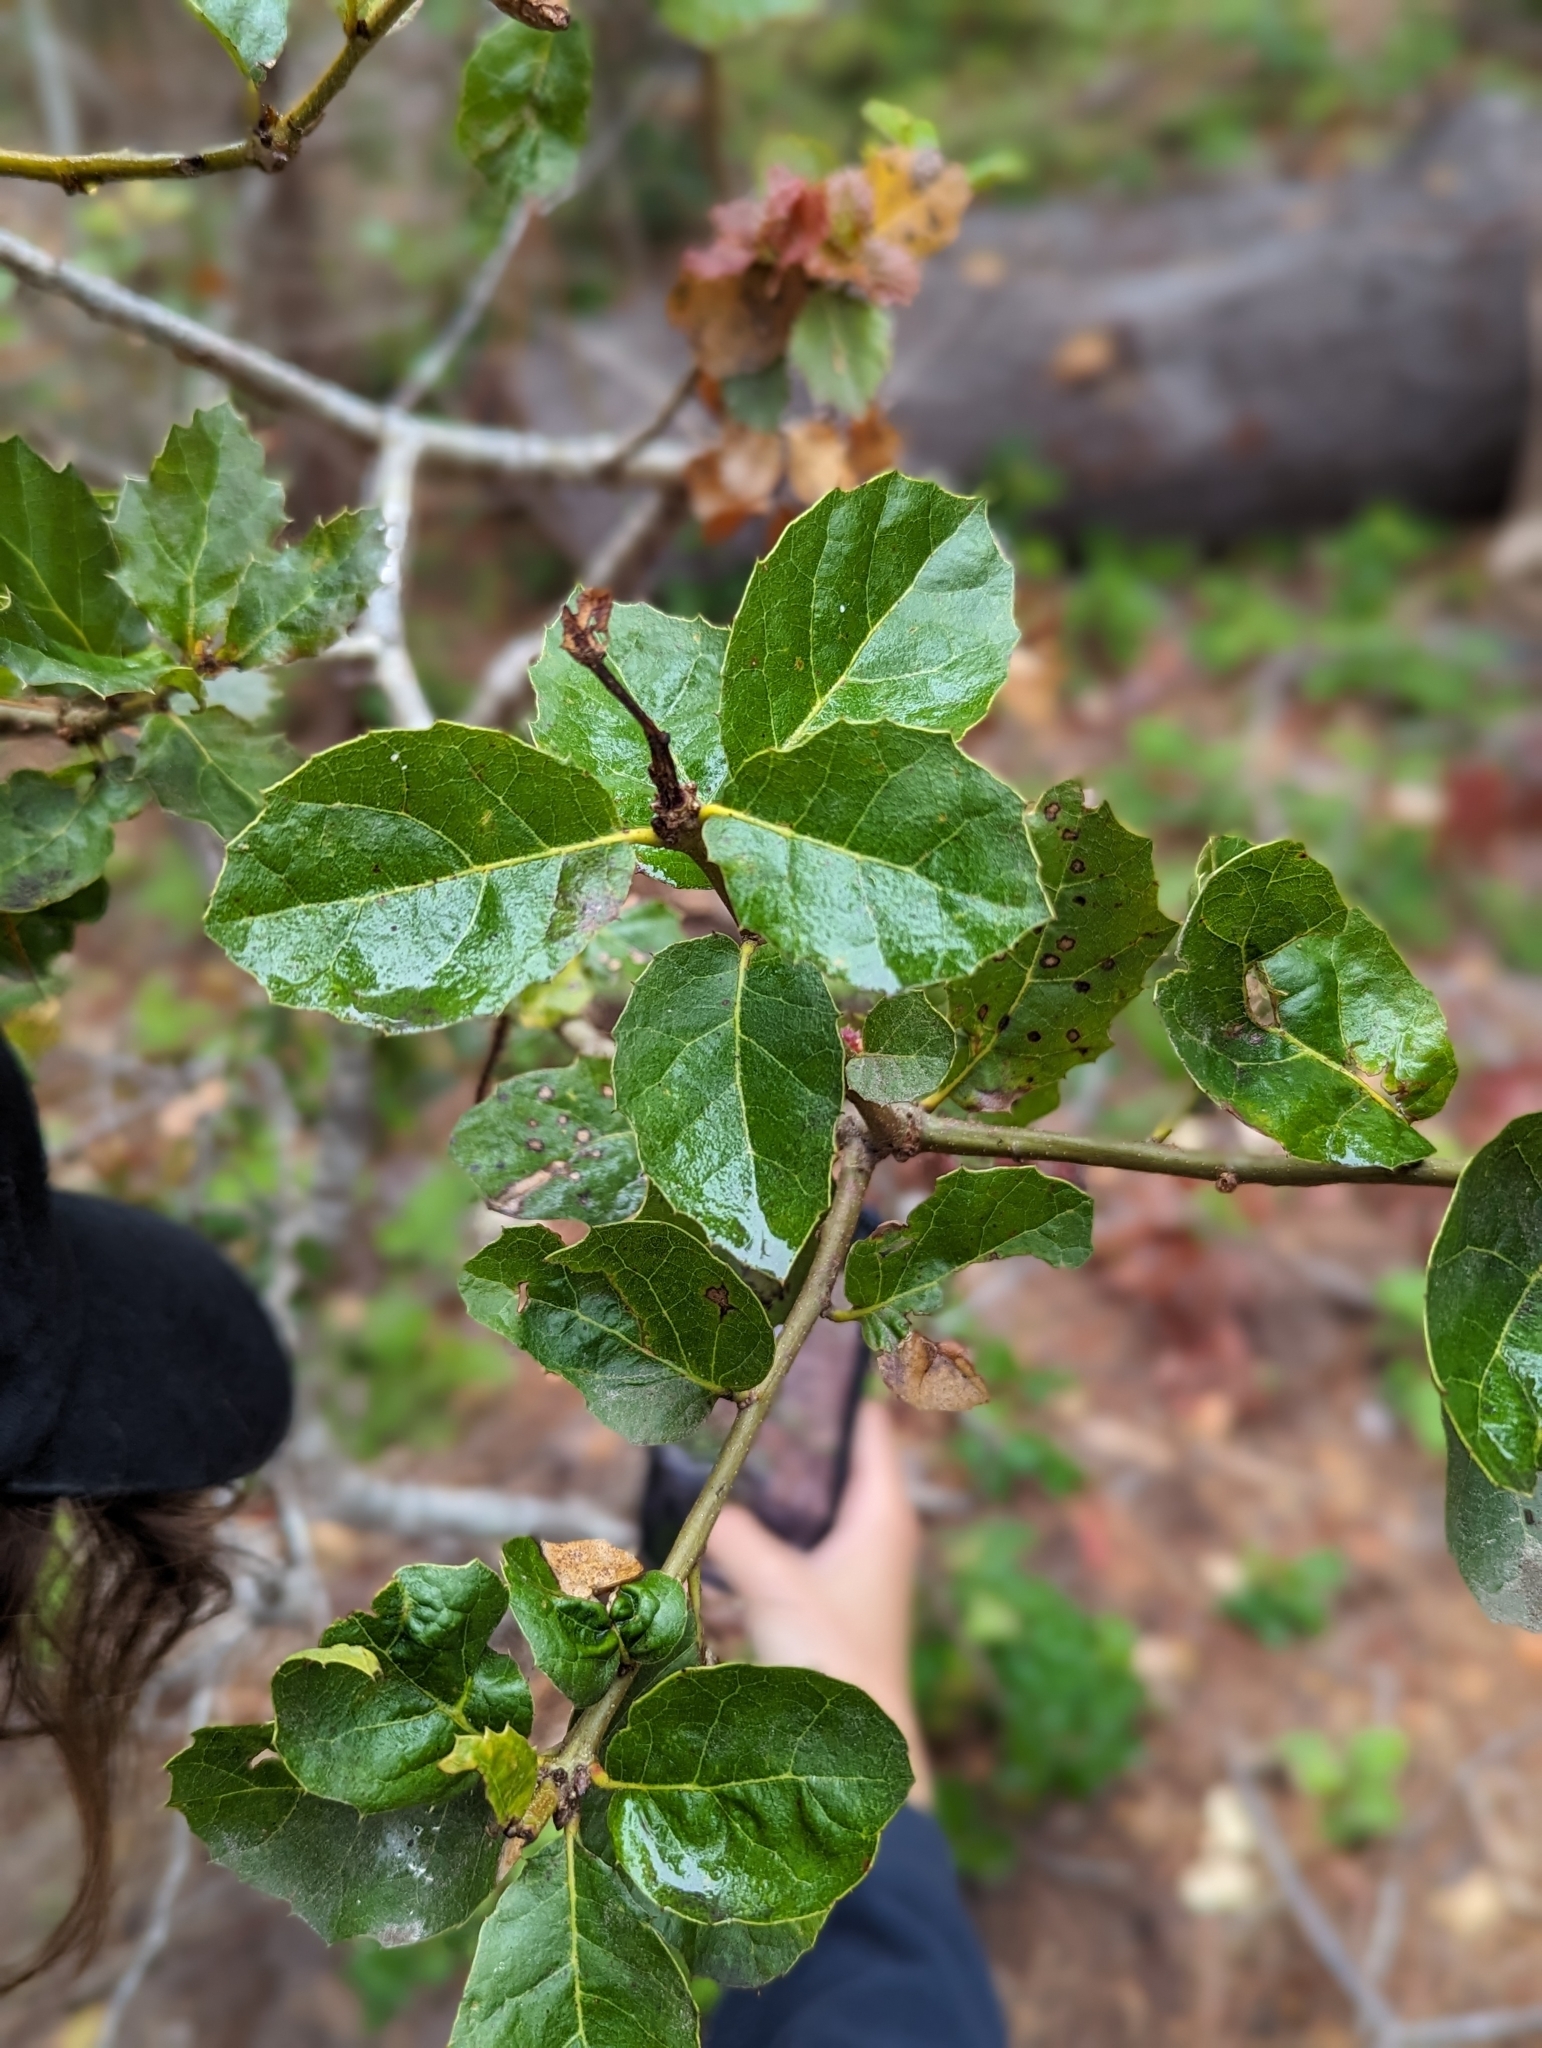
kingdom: Plantae
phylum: Tracheophyta
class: Magnoliopsida
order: Fagales
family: Fagaceae
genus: Quercus
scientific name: Quercus agrifolia
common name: California live oak
